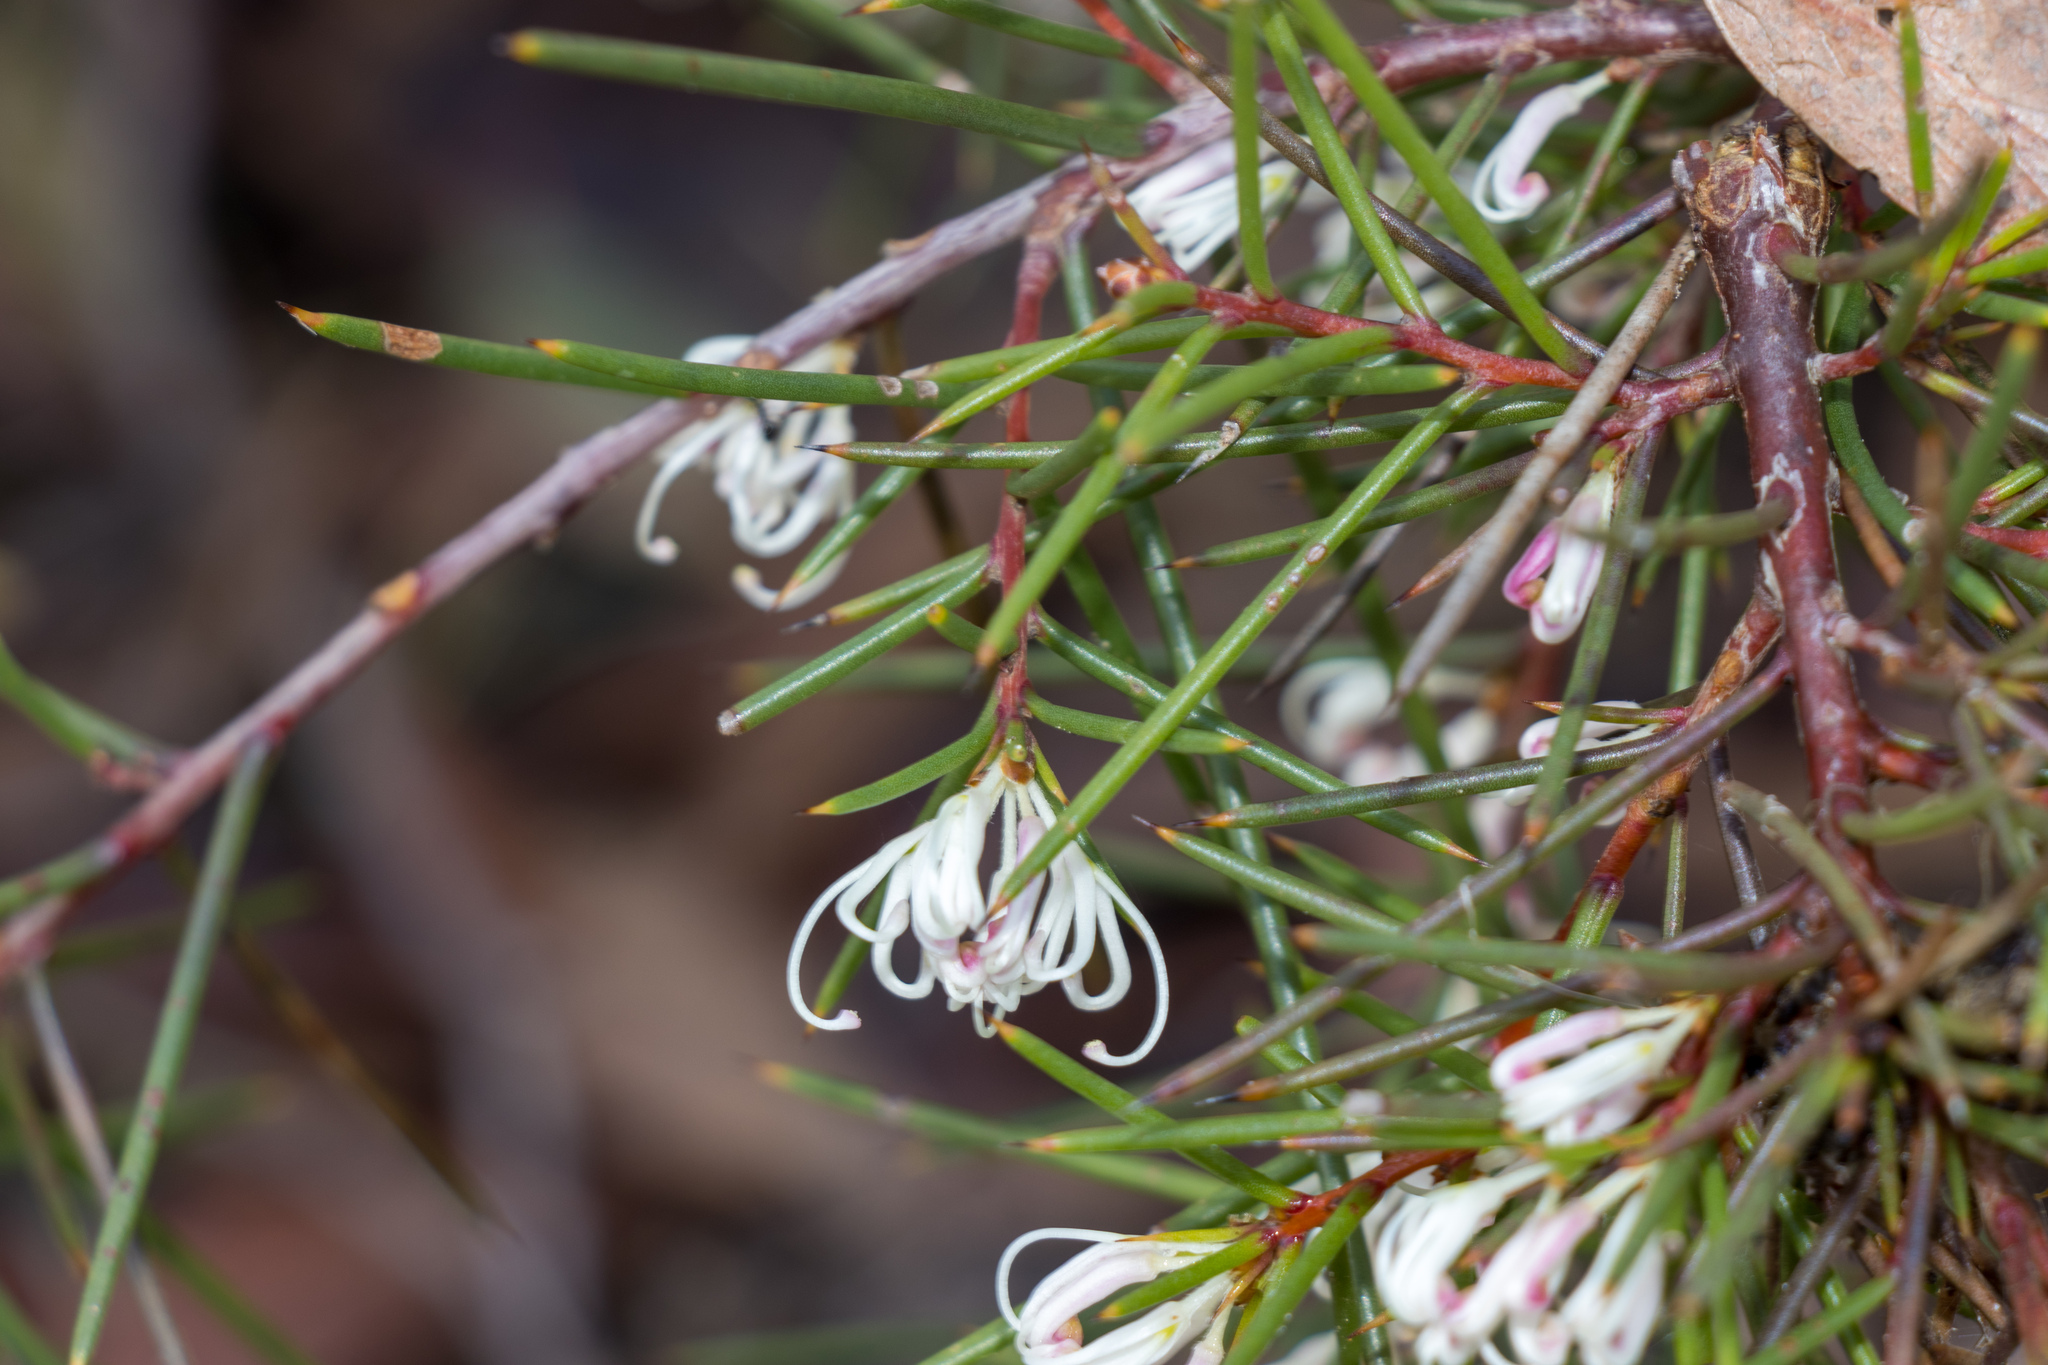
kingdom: Plantae
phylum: Tracheophyta
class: Magnoliopsida
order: Proteales
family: Proteaceae
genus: Hakea
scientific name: Hakea decurrens
